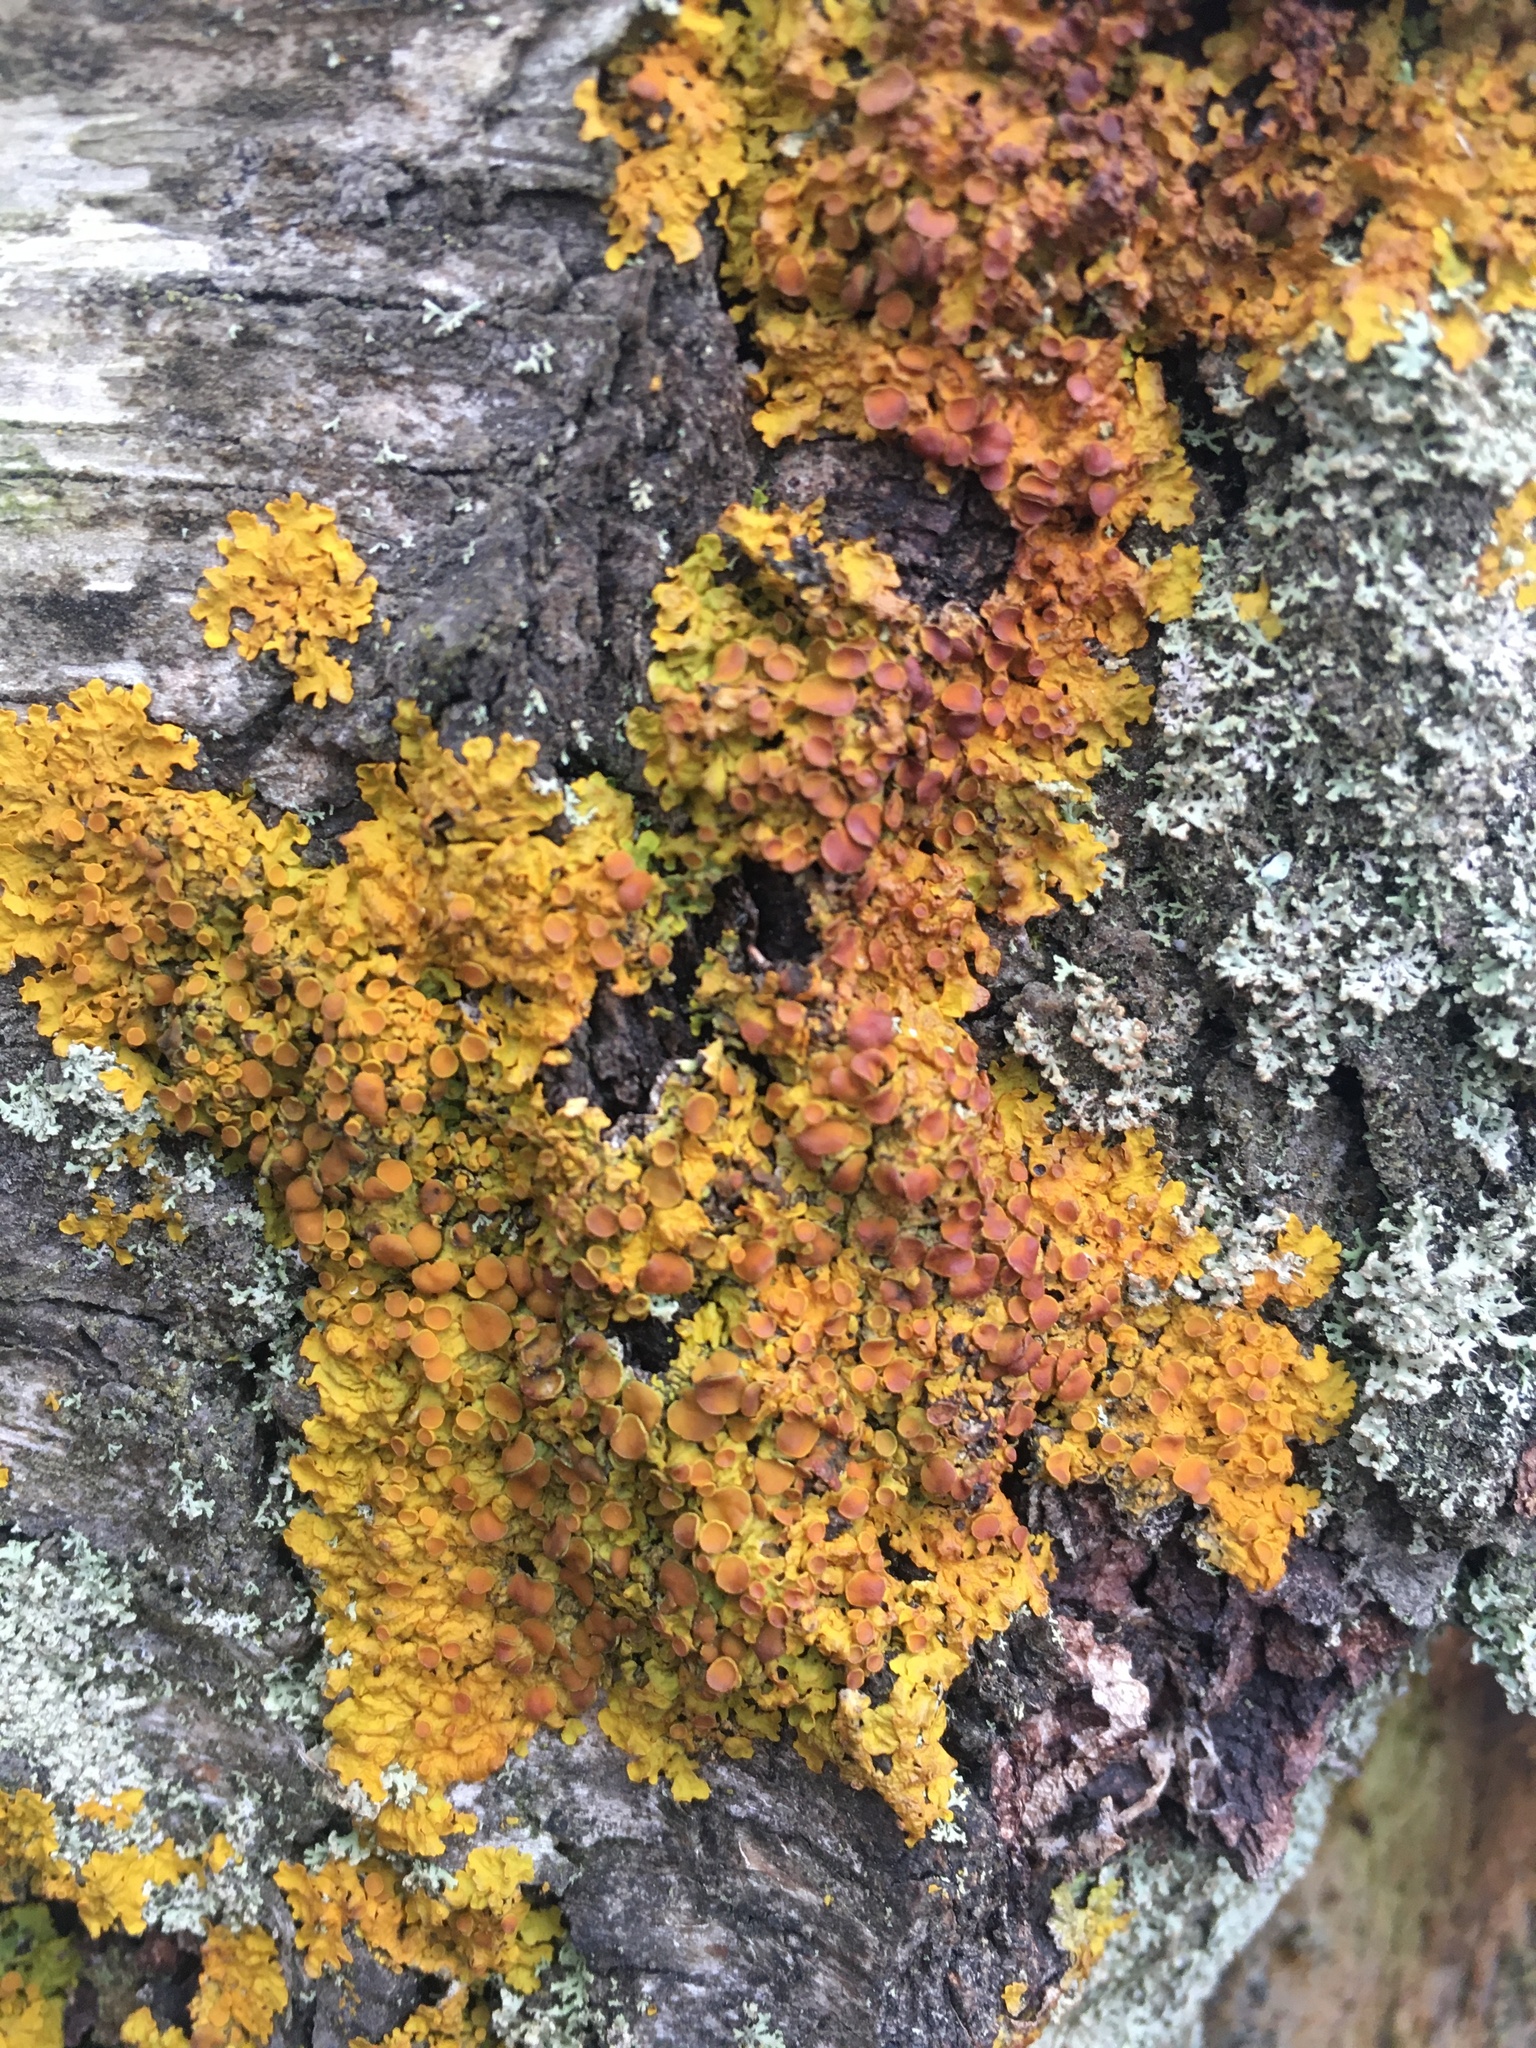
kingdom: Fungi
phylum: Ascomycota
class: Lecanoromycetes
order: Teloschistales
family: Teloschistaceae
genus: Xanthoria
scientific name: Xanthoria parietina
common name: Common orange lichen
